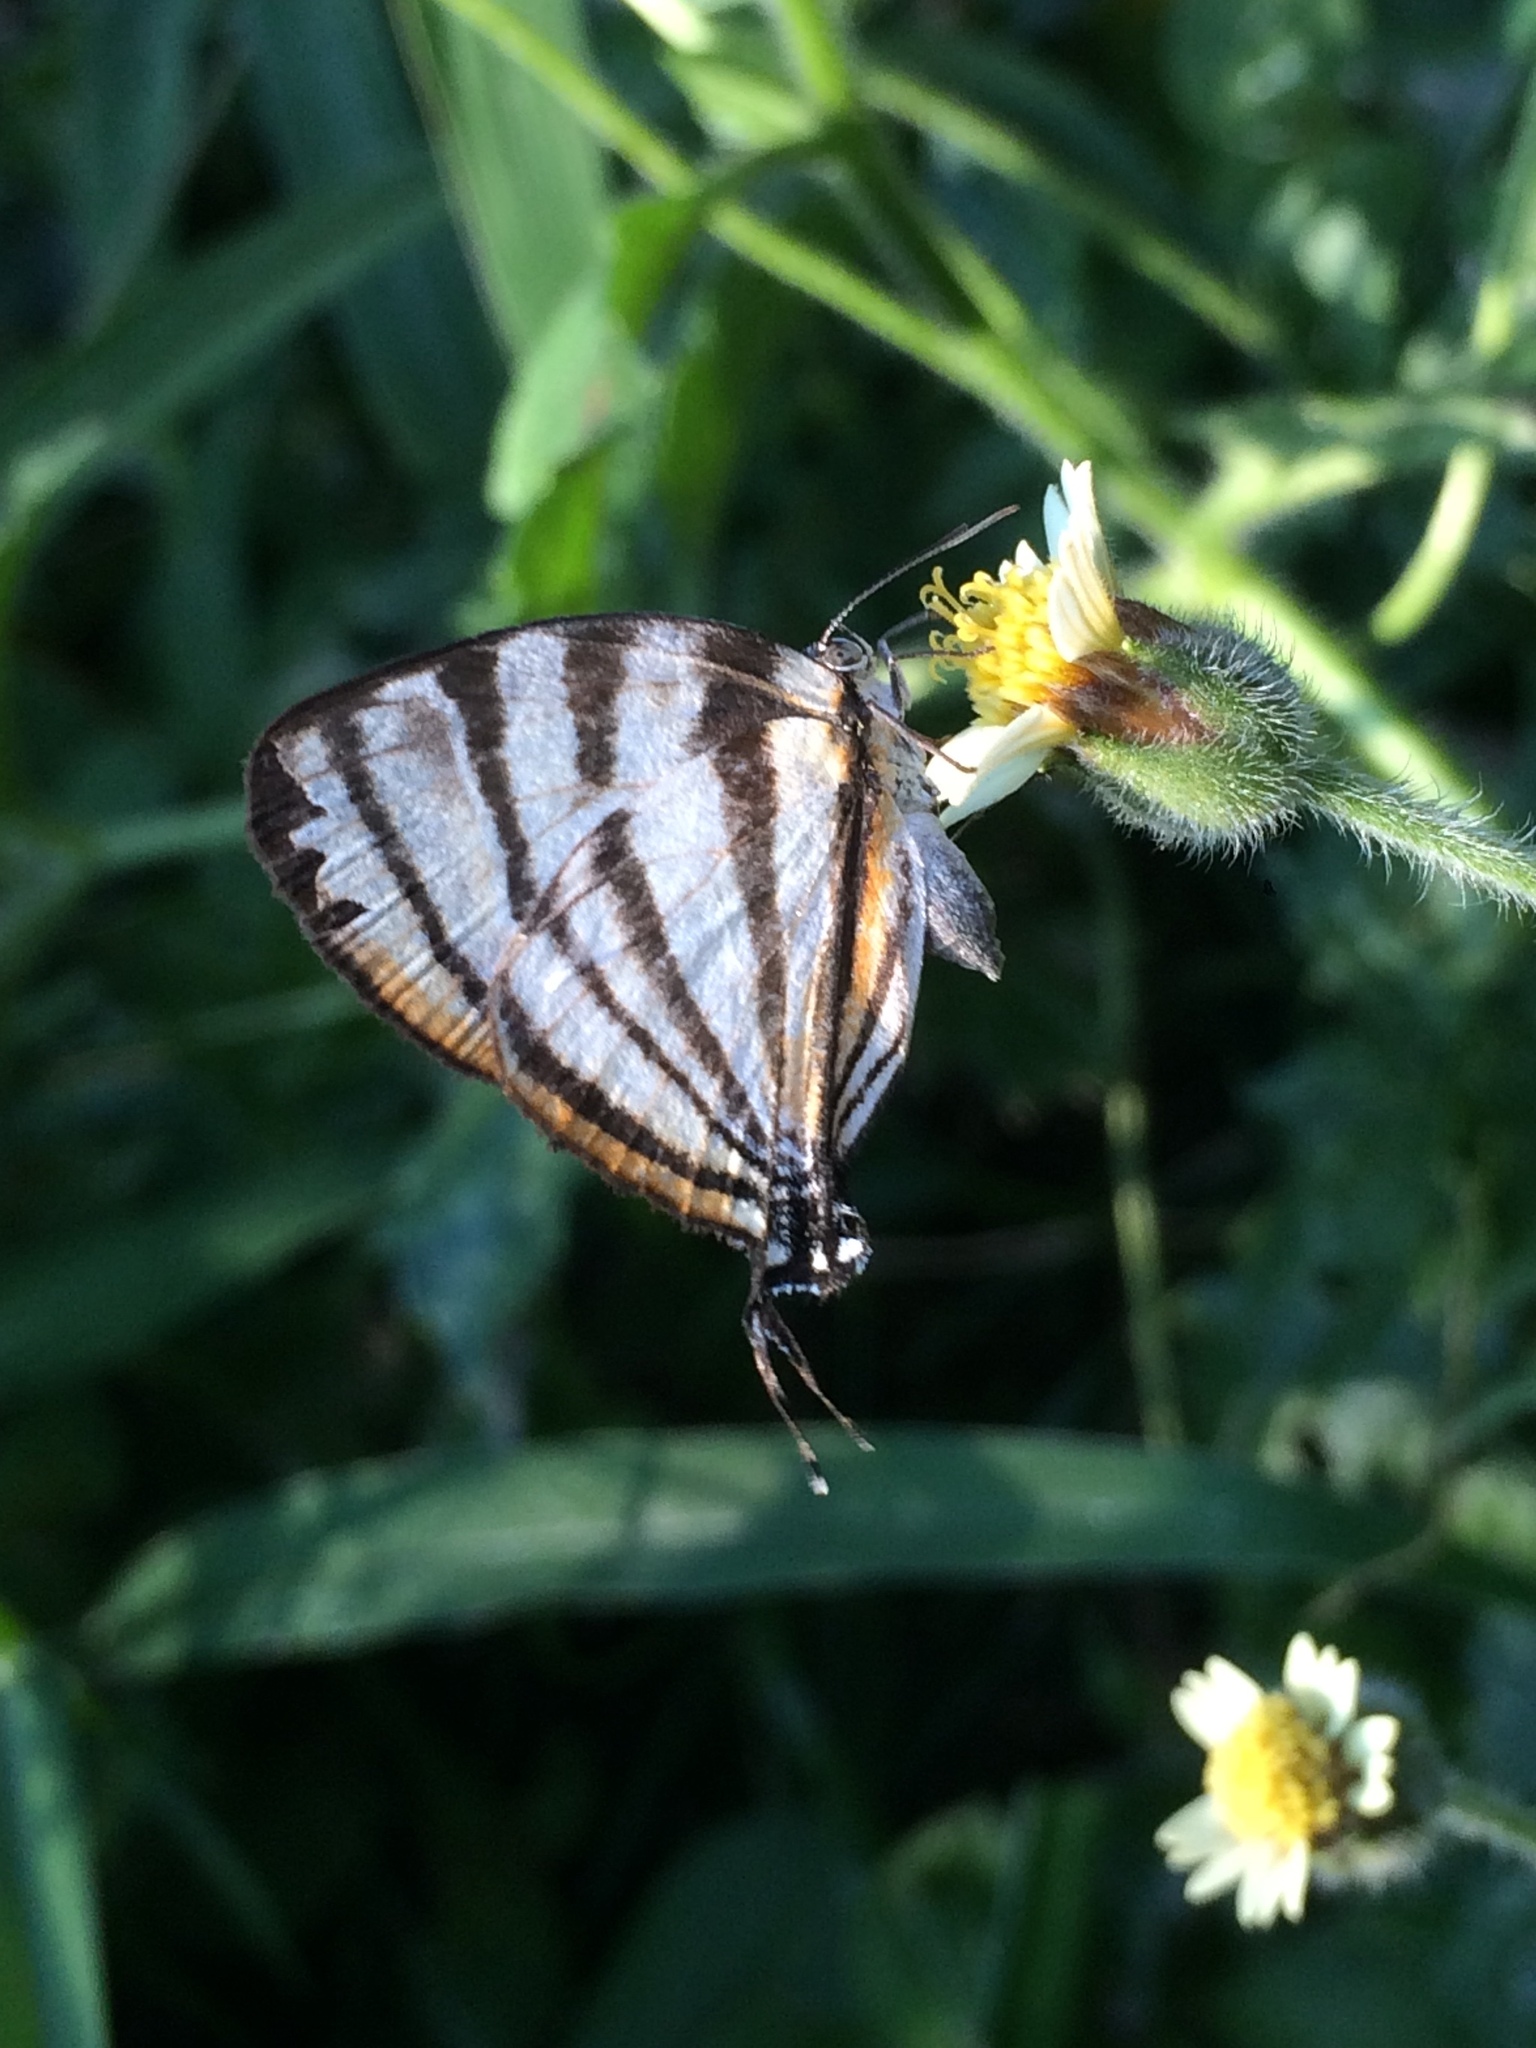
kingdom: Animalia
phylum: Arthropoda
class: Insecta
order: Lepidoptera
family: Lycaenidae
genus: Arawacus
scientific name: Arawacus separata
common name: Separated stripestreak
